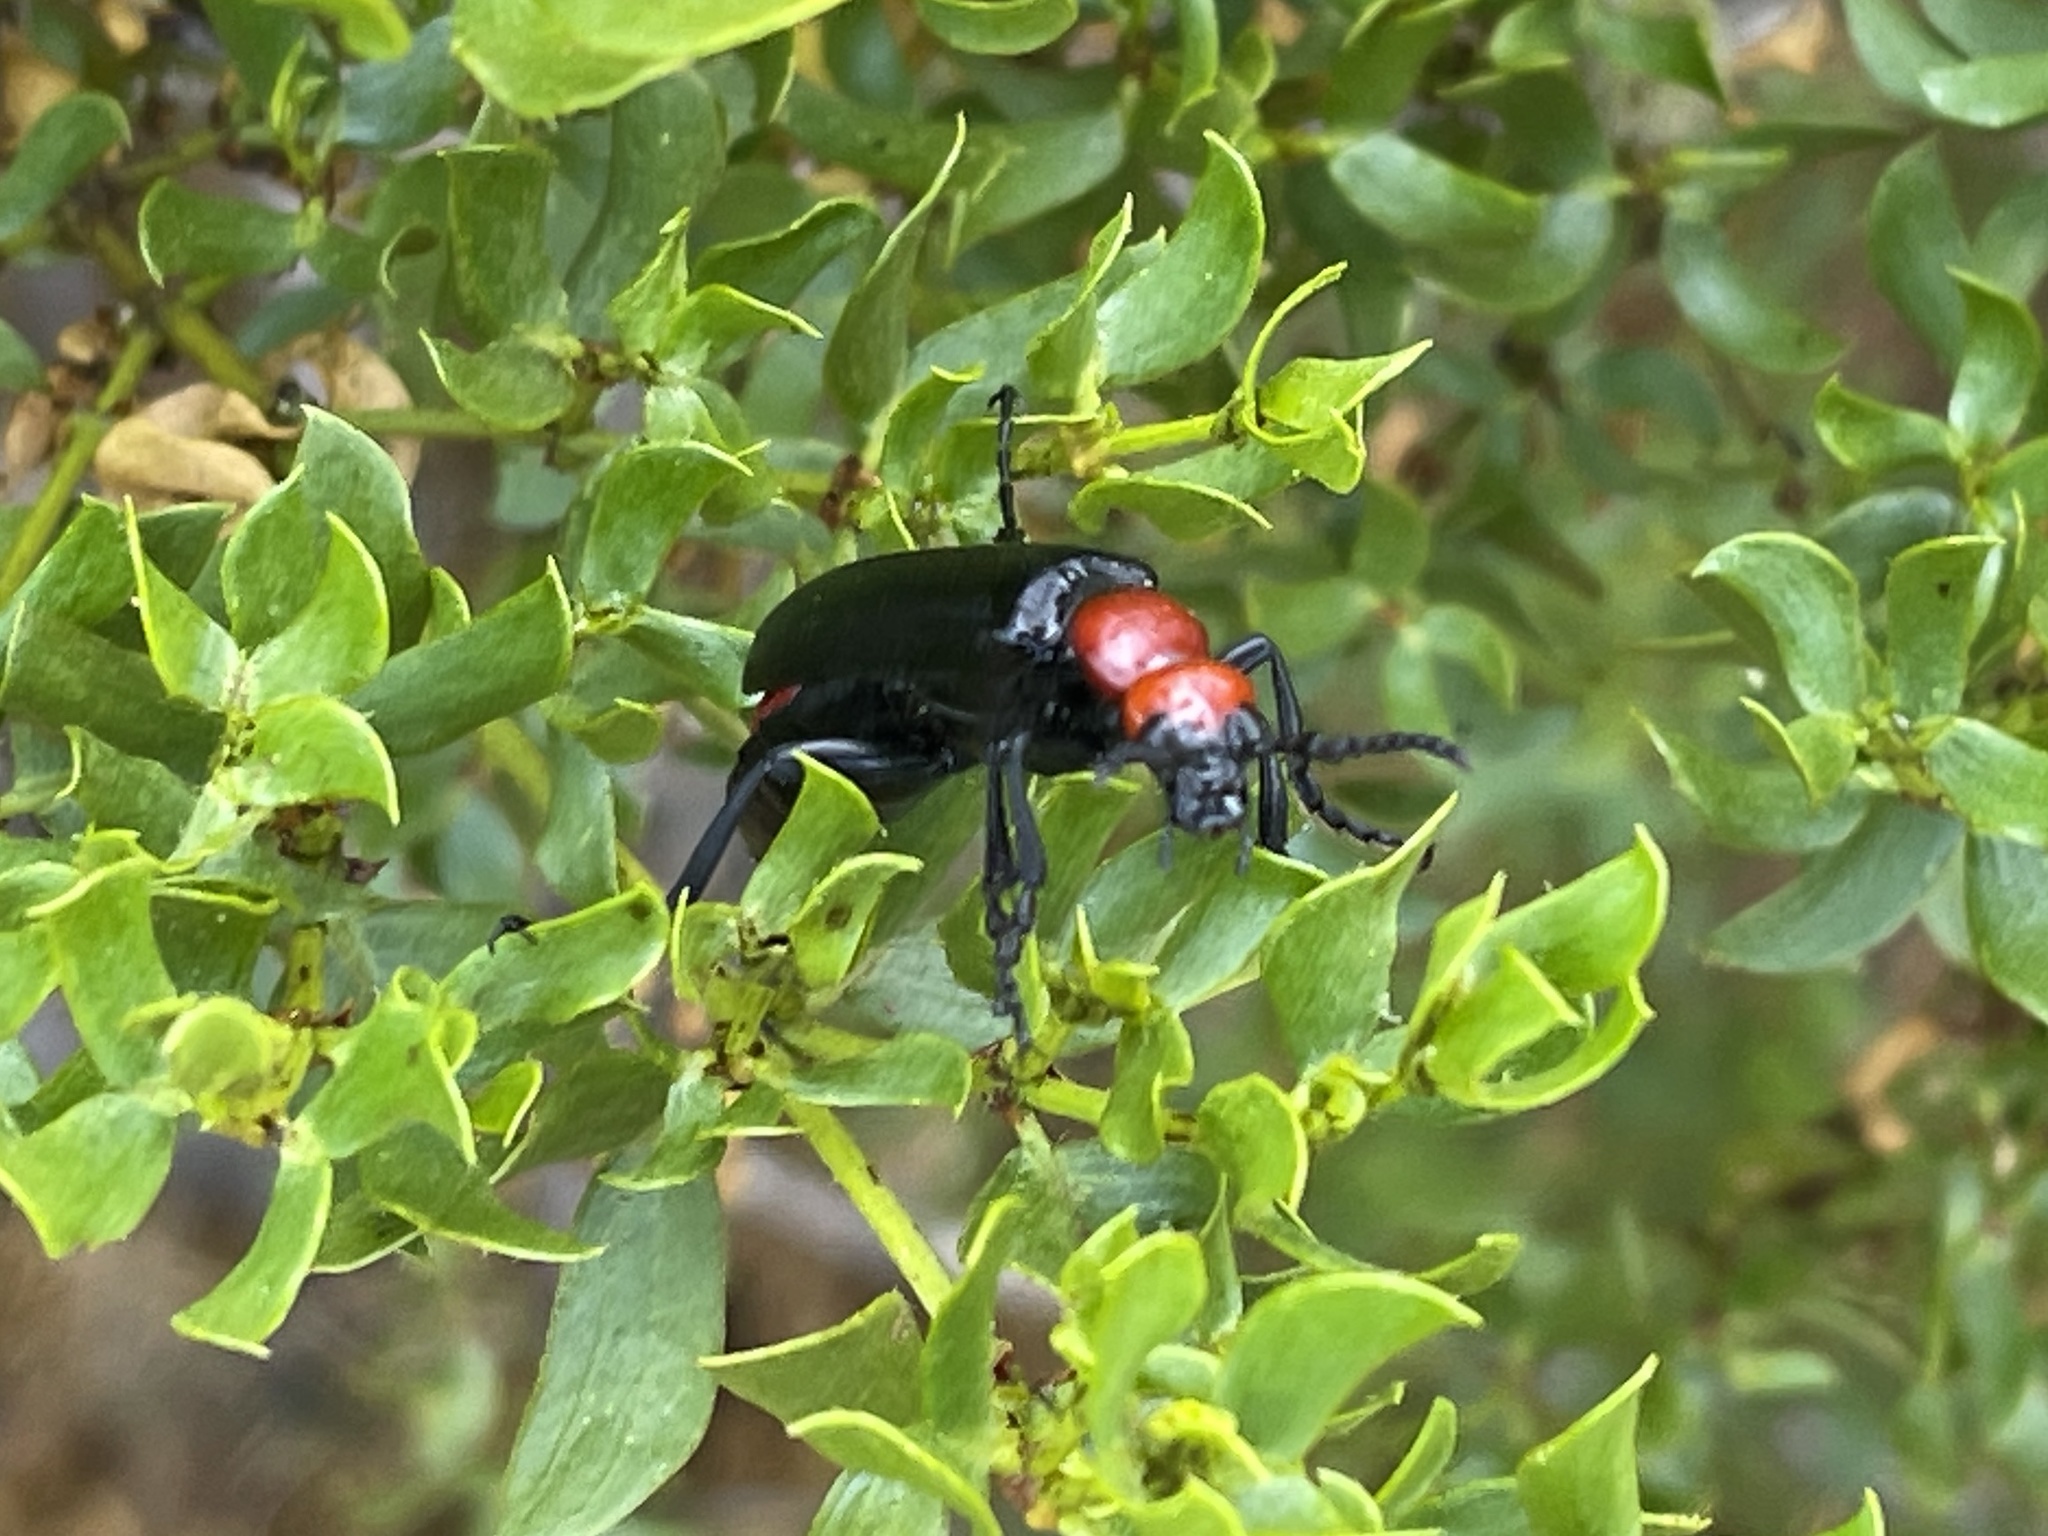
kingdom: Animalia
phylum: Arthropoda
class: Insecta
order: Coleoptera
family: Meloidae
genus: Lytta
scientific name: Lytta mutilata
